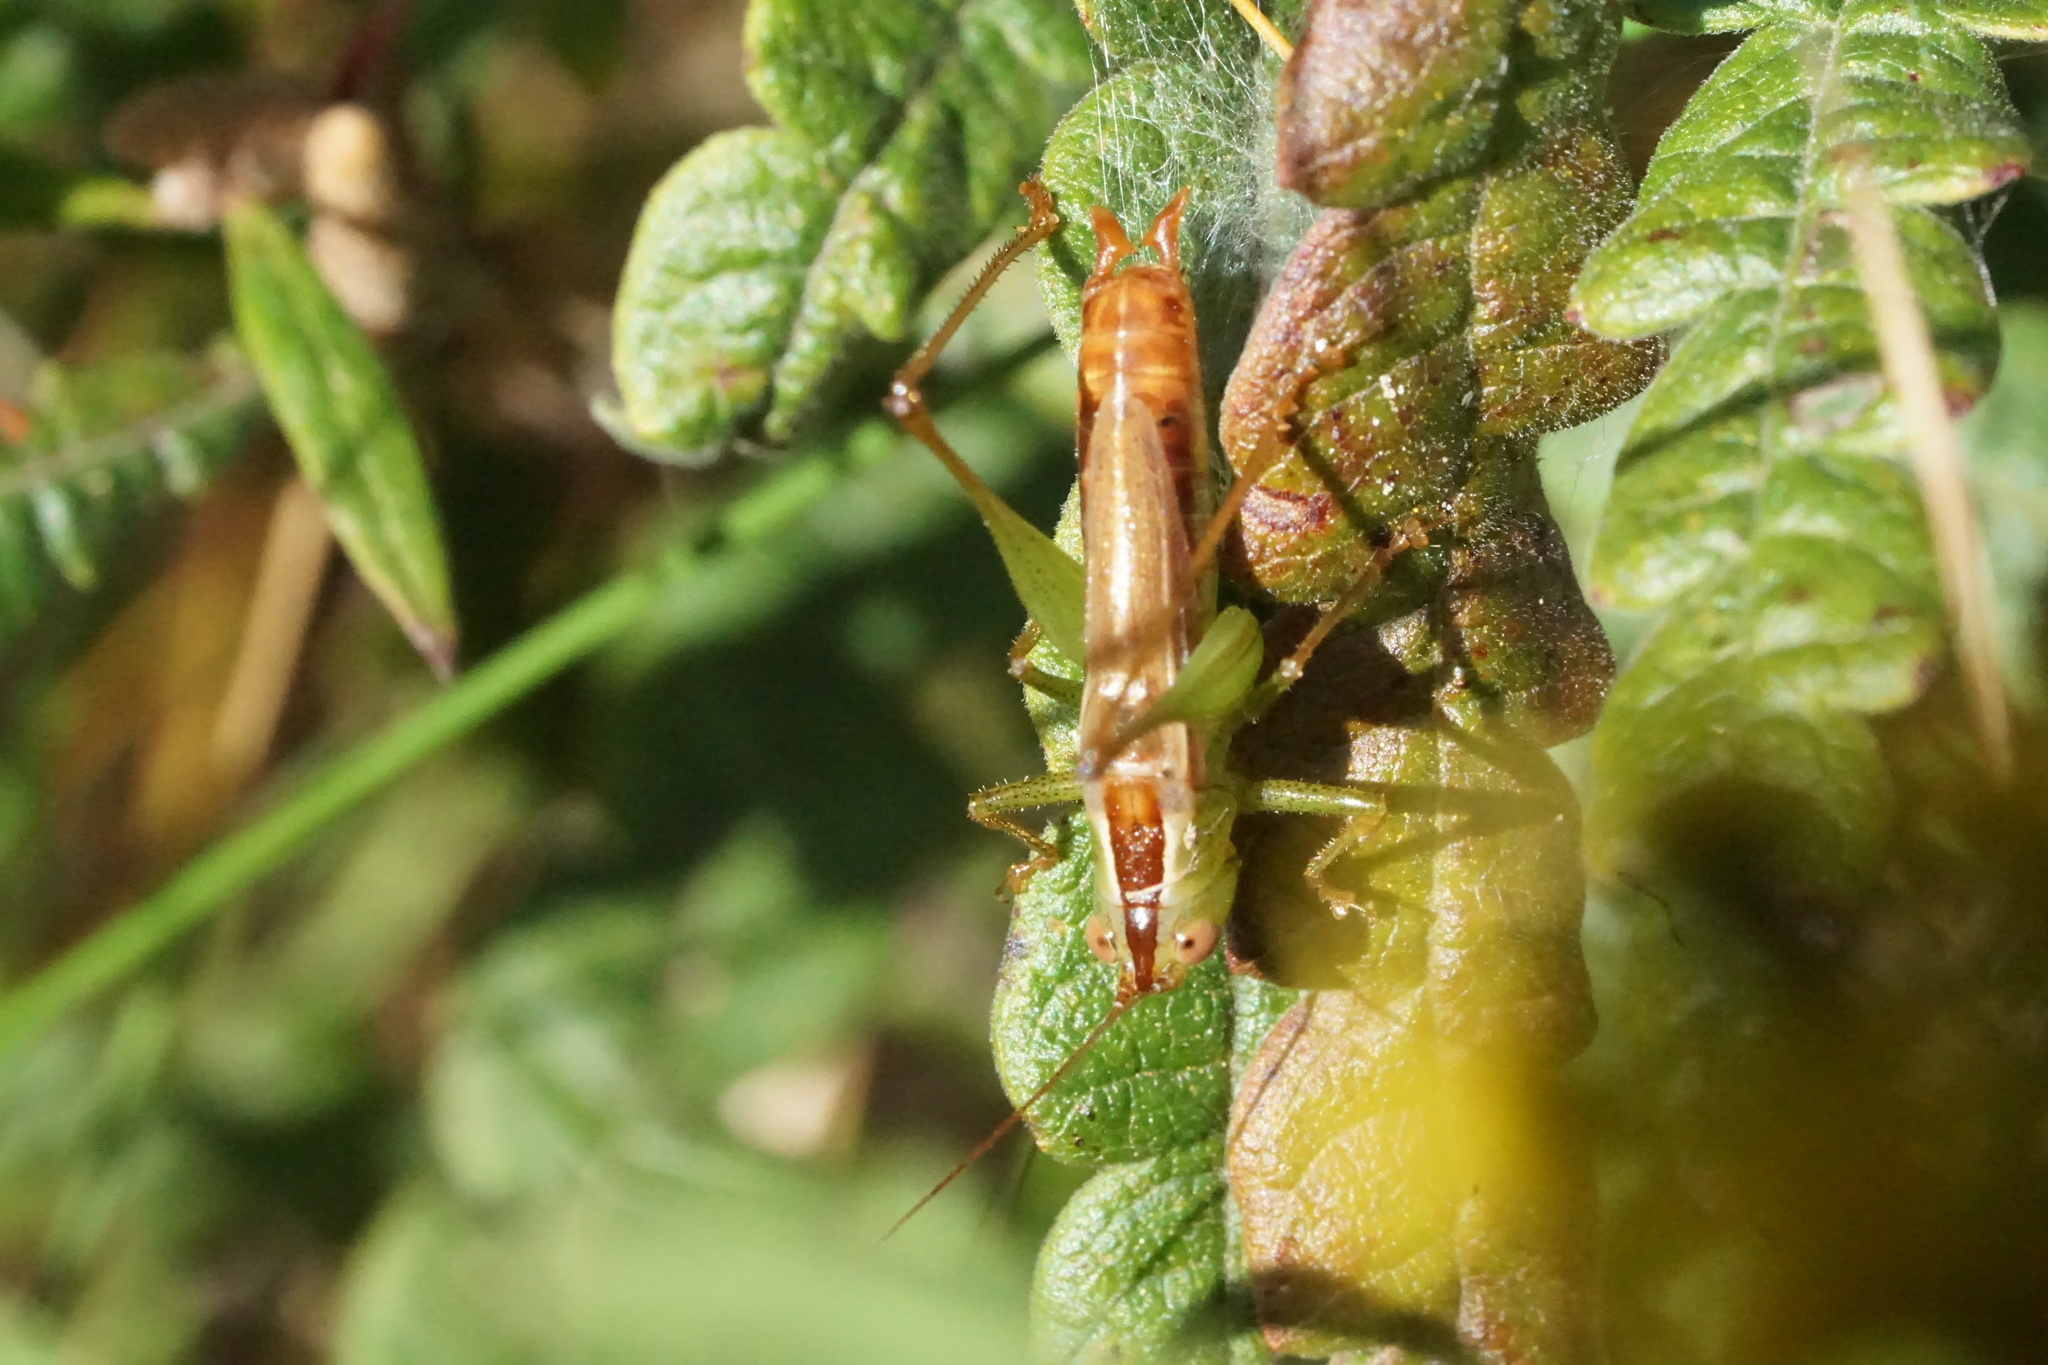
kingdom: Animalia
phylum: Arthropoda
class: Insecta
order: Orthoptera
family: Tettigoniidae
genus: Conocephalus
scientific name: Conocephalus brevipennis
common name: Short-winged meadow katydid
